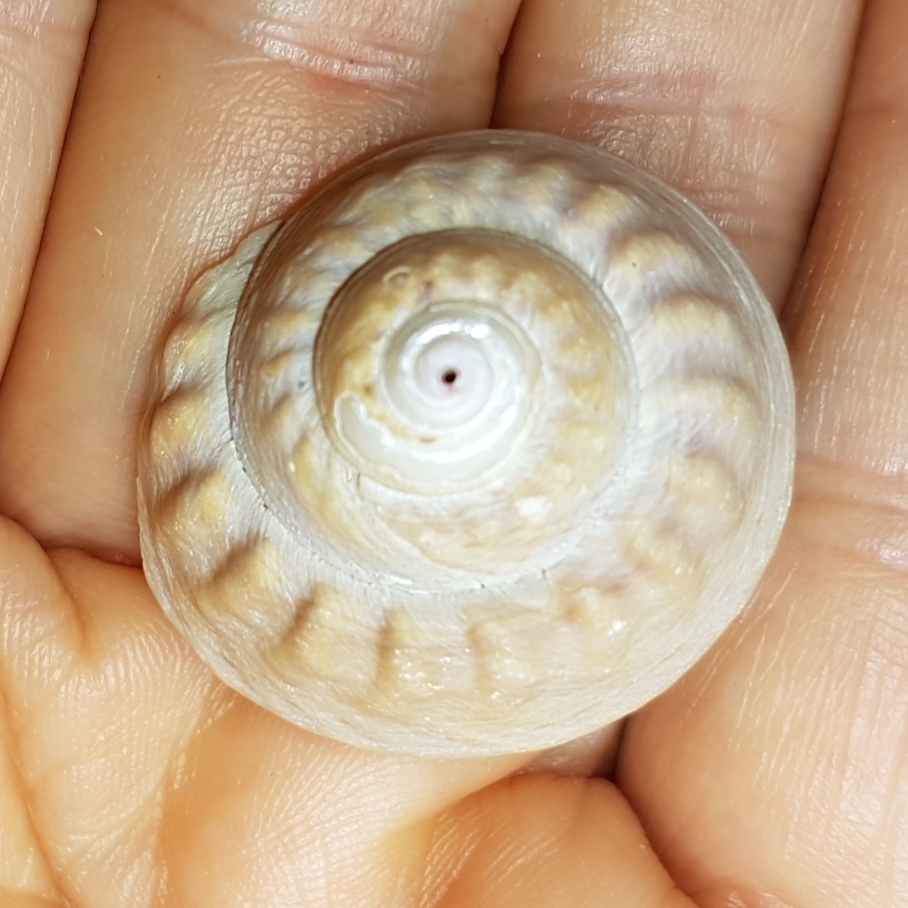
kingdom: Animalia
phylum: Mollusca
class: Gastropoda
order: Trochida
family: Trochidae
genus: Gibbula
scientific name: Gibbula magus
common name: Turban top shell
